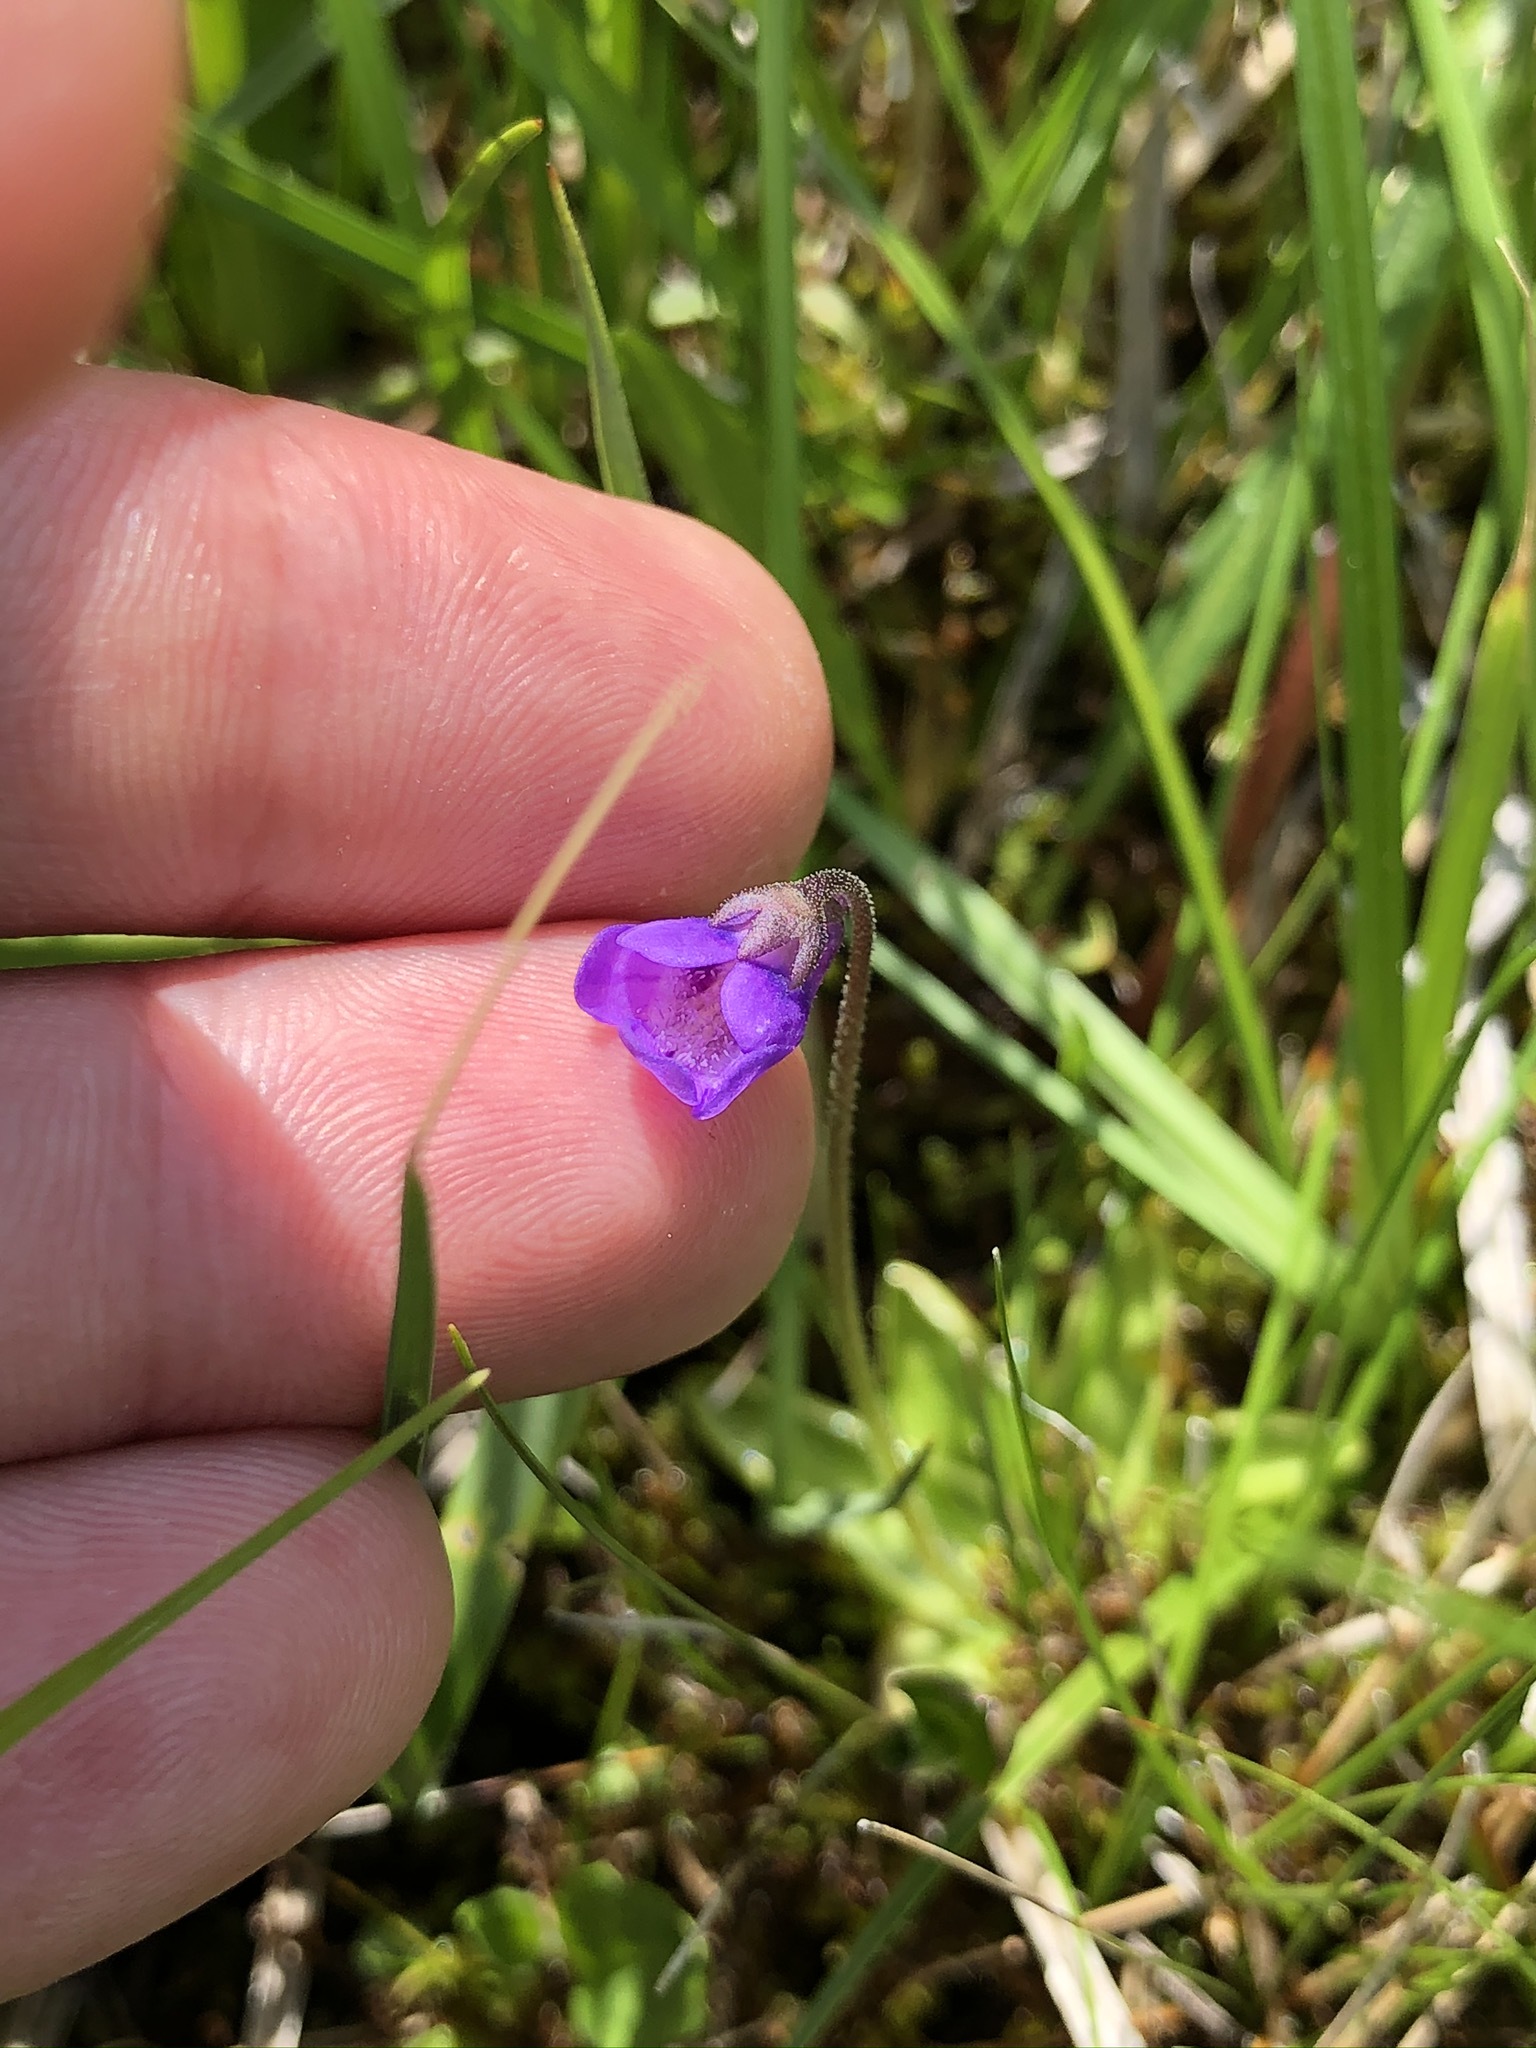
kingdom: Plantae
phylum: Tracheophyta
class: Magnoliopsida
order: Lamiales
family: Lentibulariaceae
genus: Pinguicula
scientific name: Pinguicula vulgaris
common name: Common butterwort
